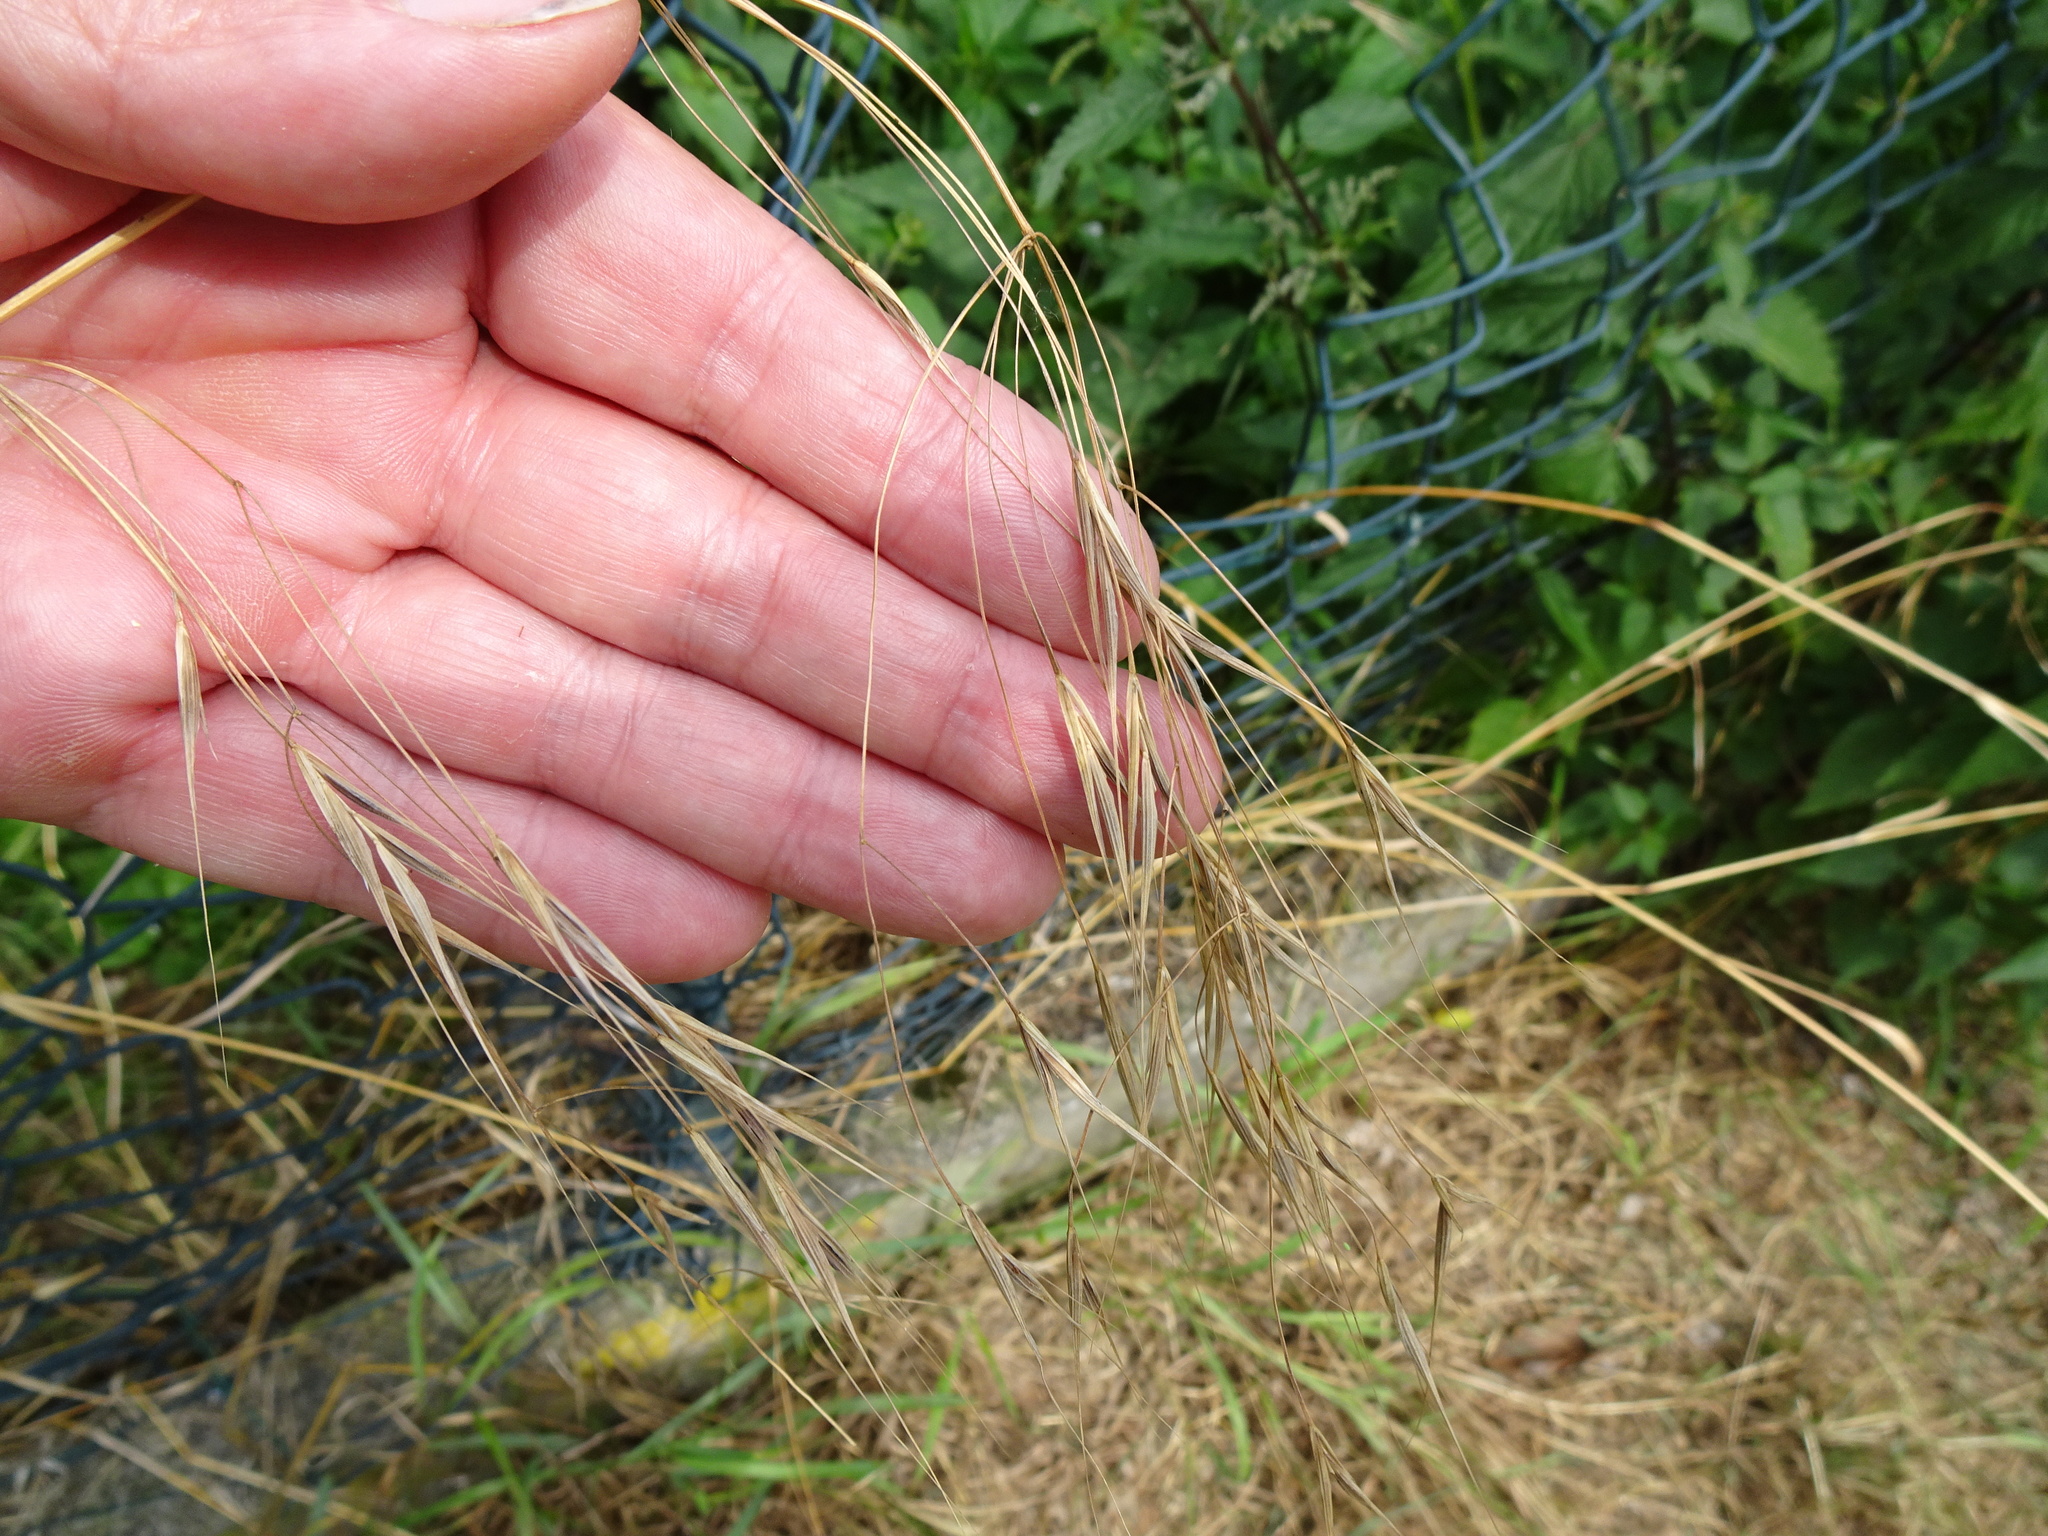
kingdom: Plantae
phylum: Tracheophyta
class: Liliopsida
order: Poales
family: Poaceae
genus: Bromus
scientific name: Bromus sterilis
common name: Poverty brome
